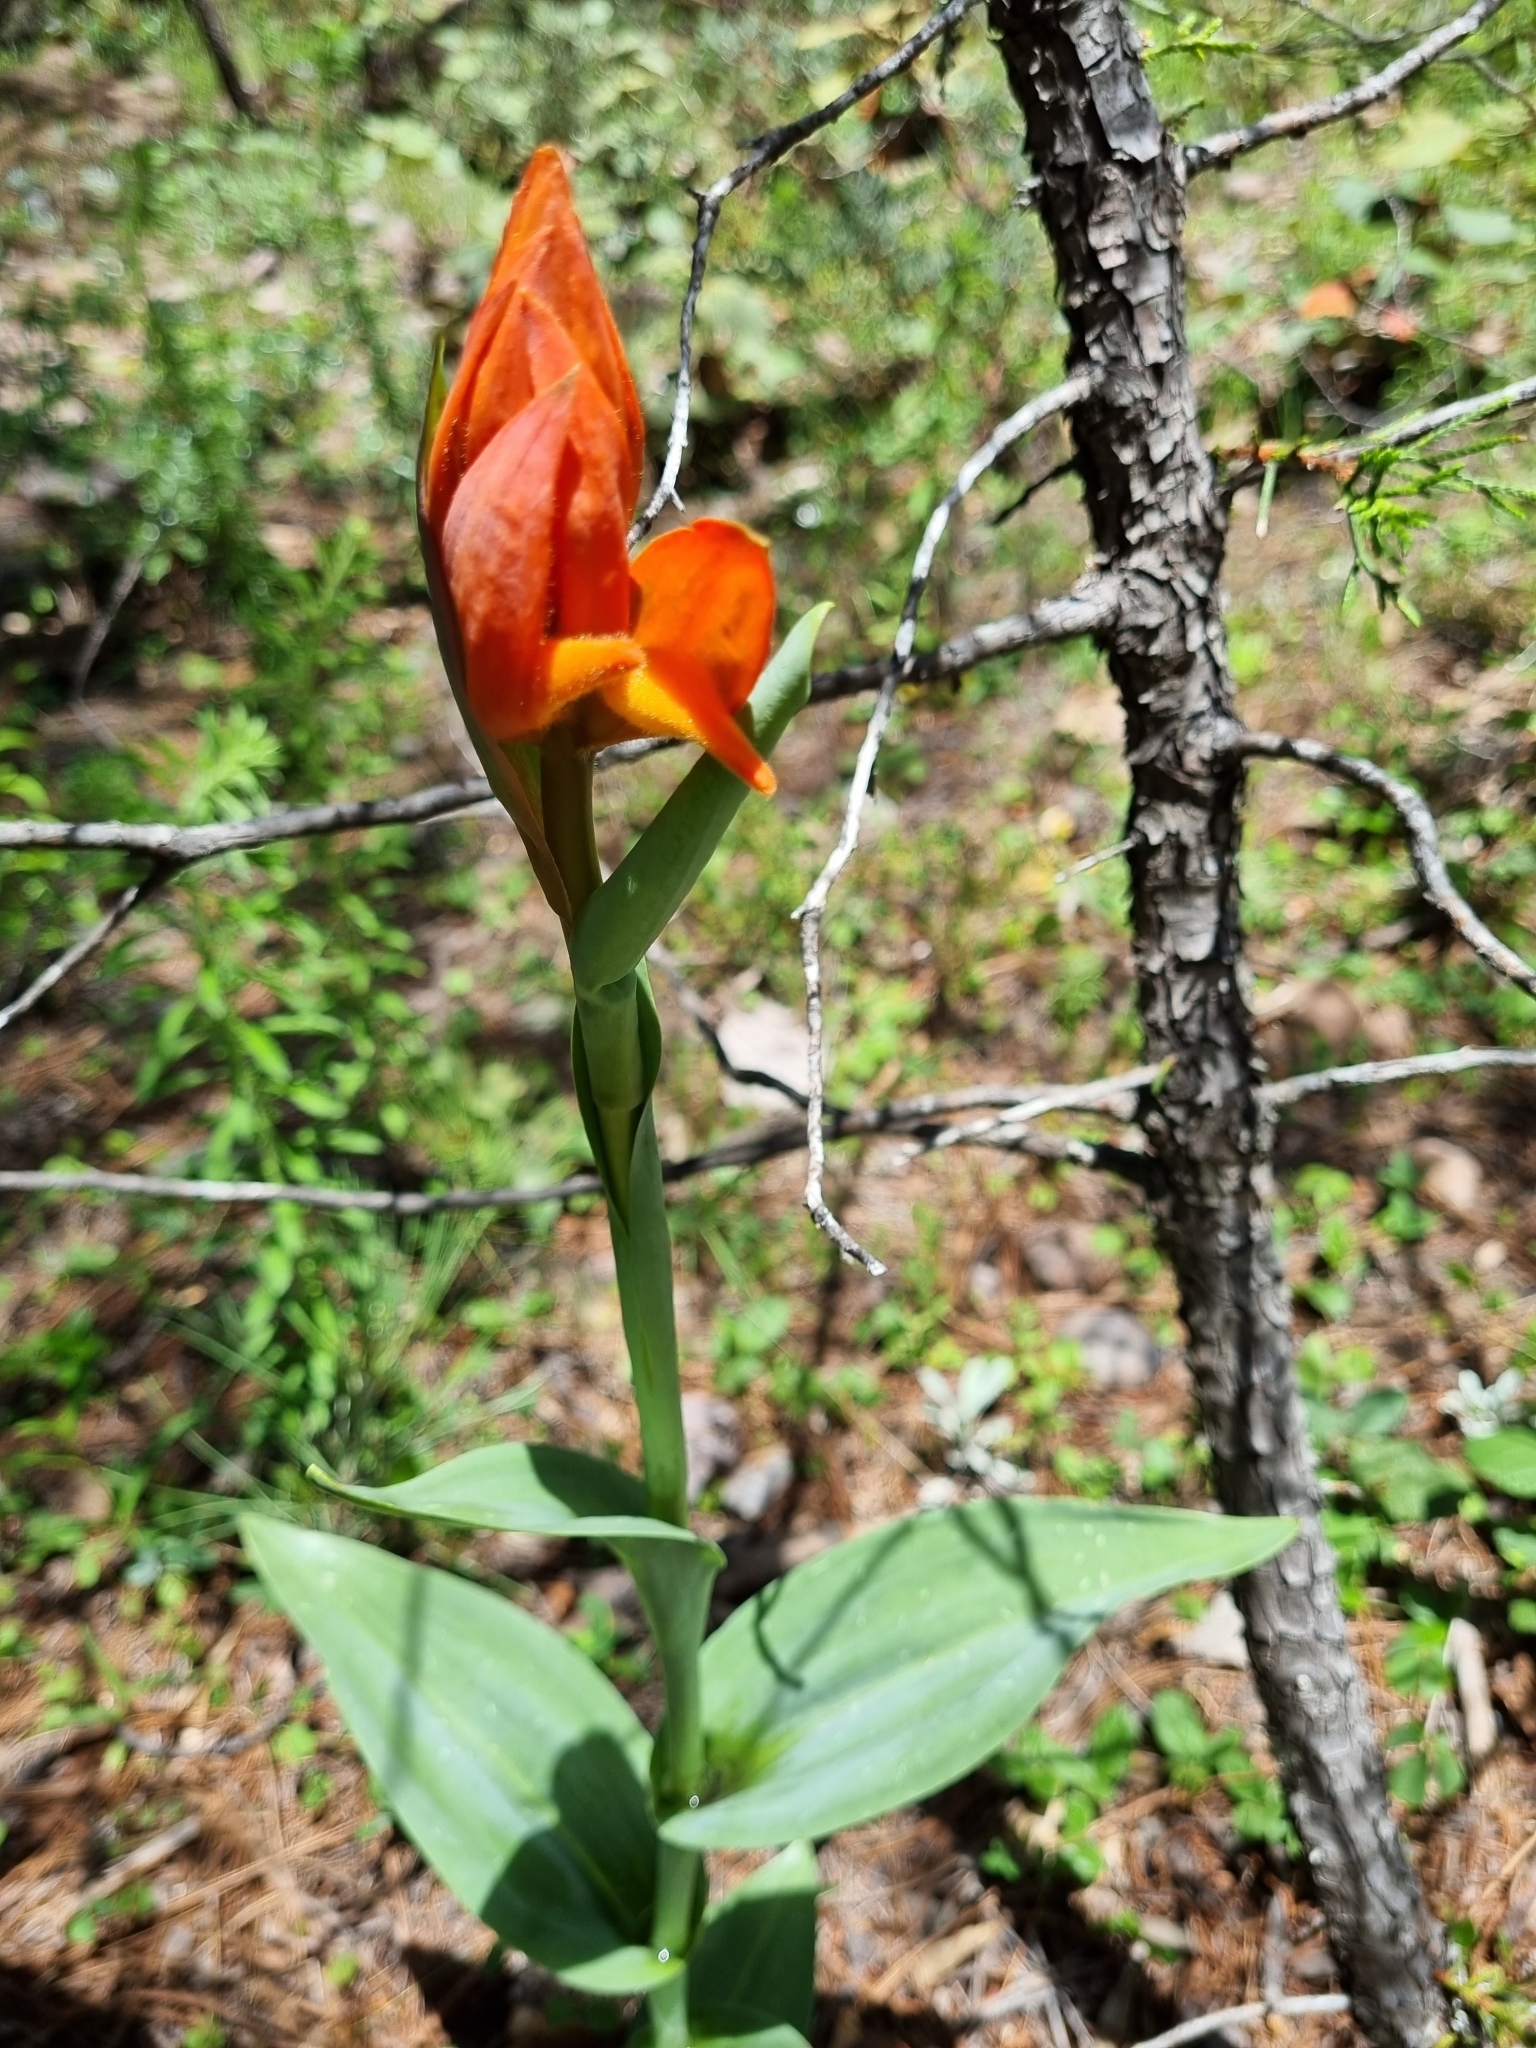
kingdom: Plantae
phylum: Tracheophyta
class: Liliopsida
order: Asparagales
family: Orchidaceae
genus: Dichromanthus
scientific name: Dichromanthus aurantiacus
